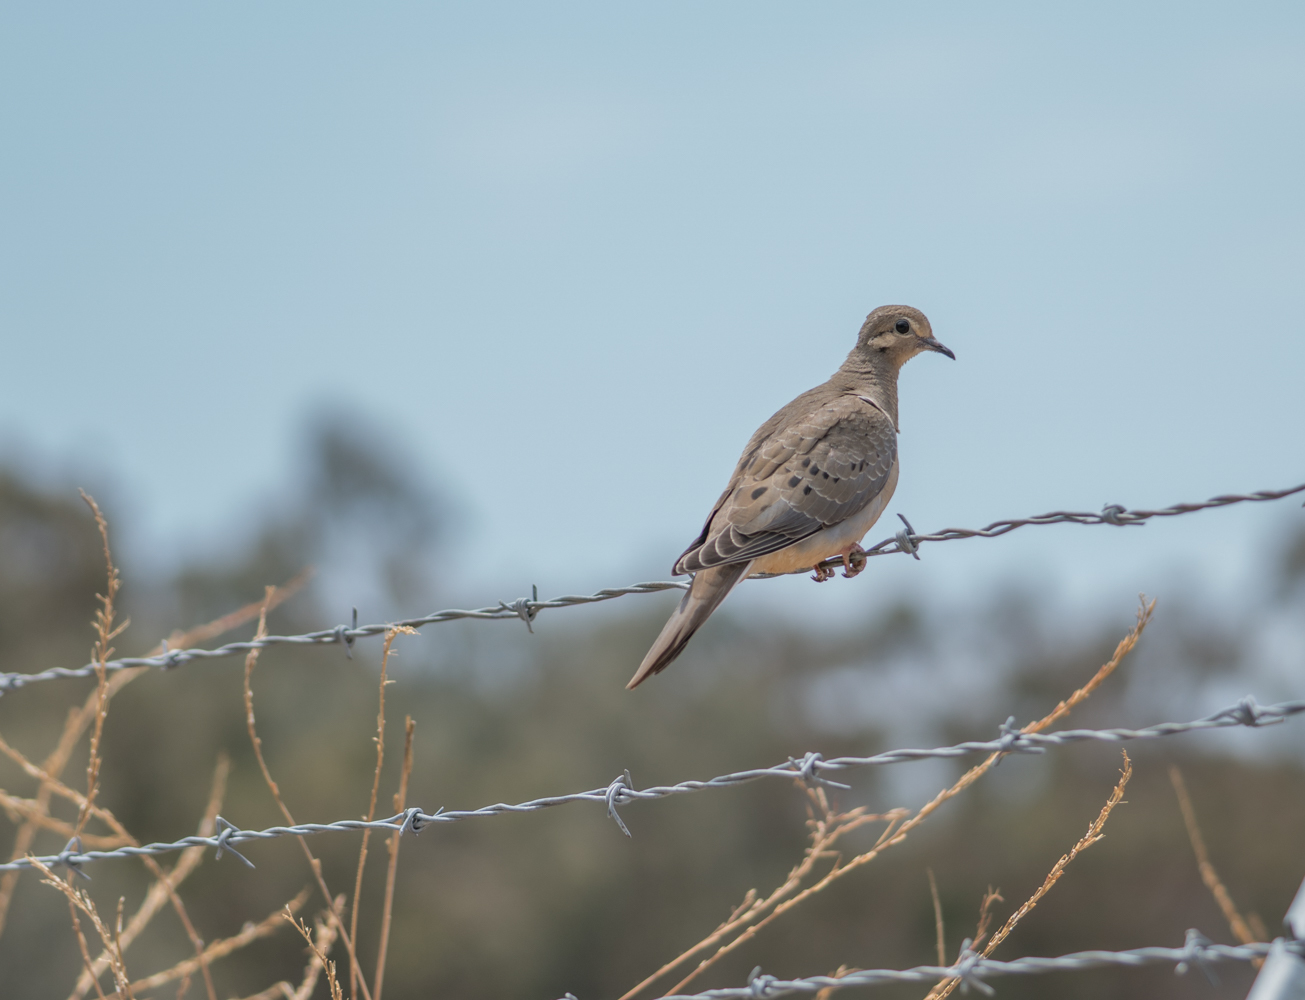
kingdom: Animalia
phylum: Chordata
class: Aves
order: Columbiformes
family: Columbidae
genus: Zenaida
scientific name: Zenaida macroura
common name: Mourning dove
